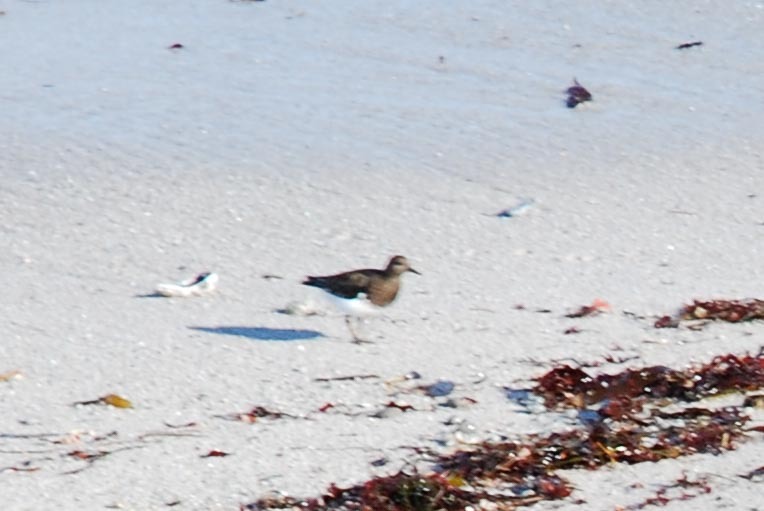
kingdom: Animalia
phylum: Chordata
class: Aves
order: Charadriiformes
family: Scolopacidae
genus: Arenaria
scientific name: Arenaria melanocephala
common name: Black turnstone
